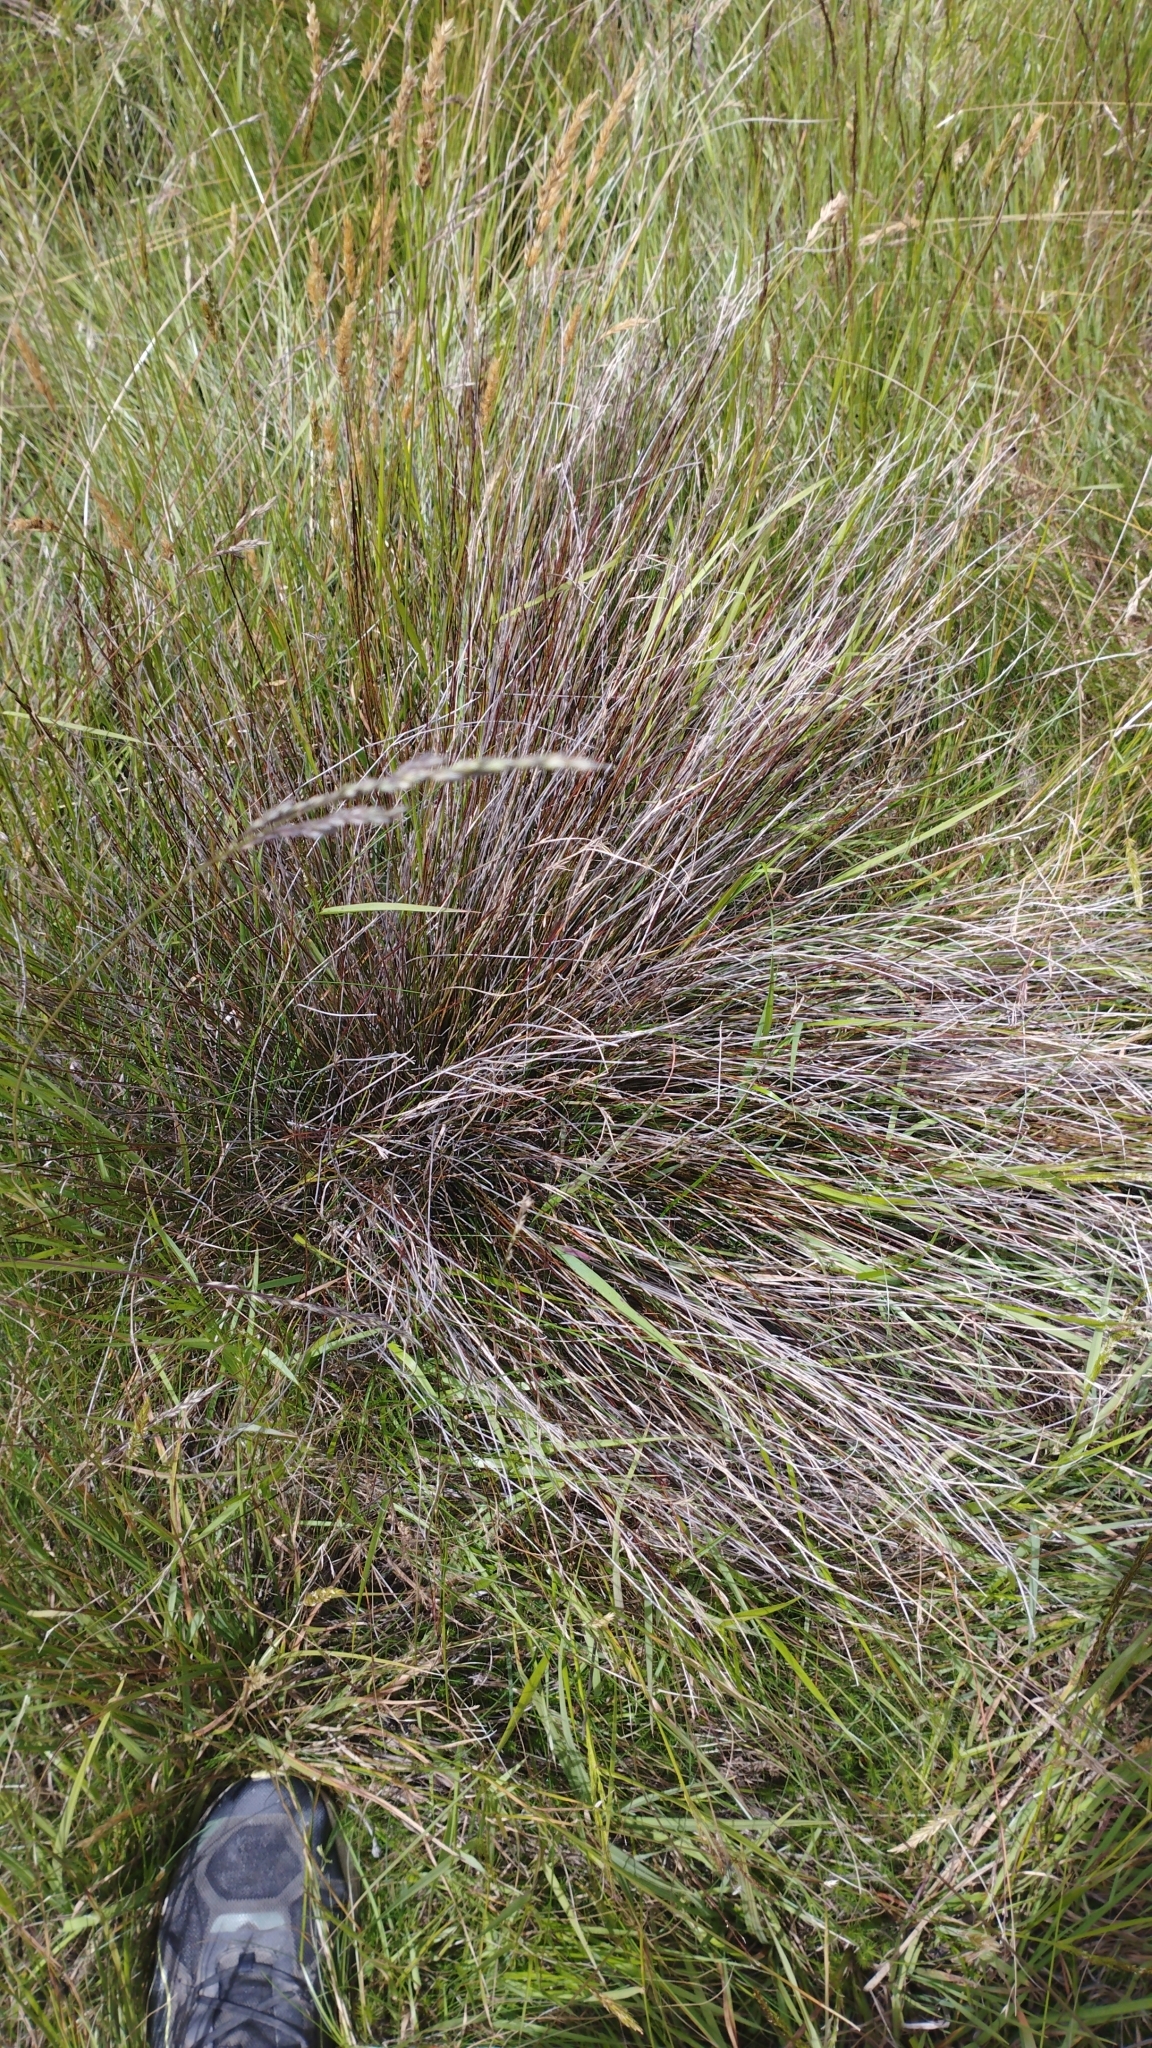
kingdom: Plantae
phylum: Tracheophyta
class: Liliopsida
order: Poales
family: Cyperaceae
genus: Schoenus
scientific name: Schoenus pauciflorus
